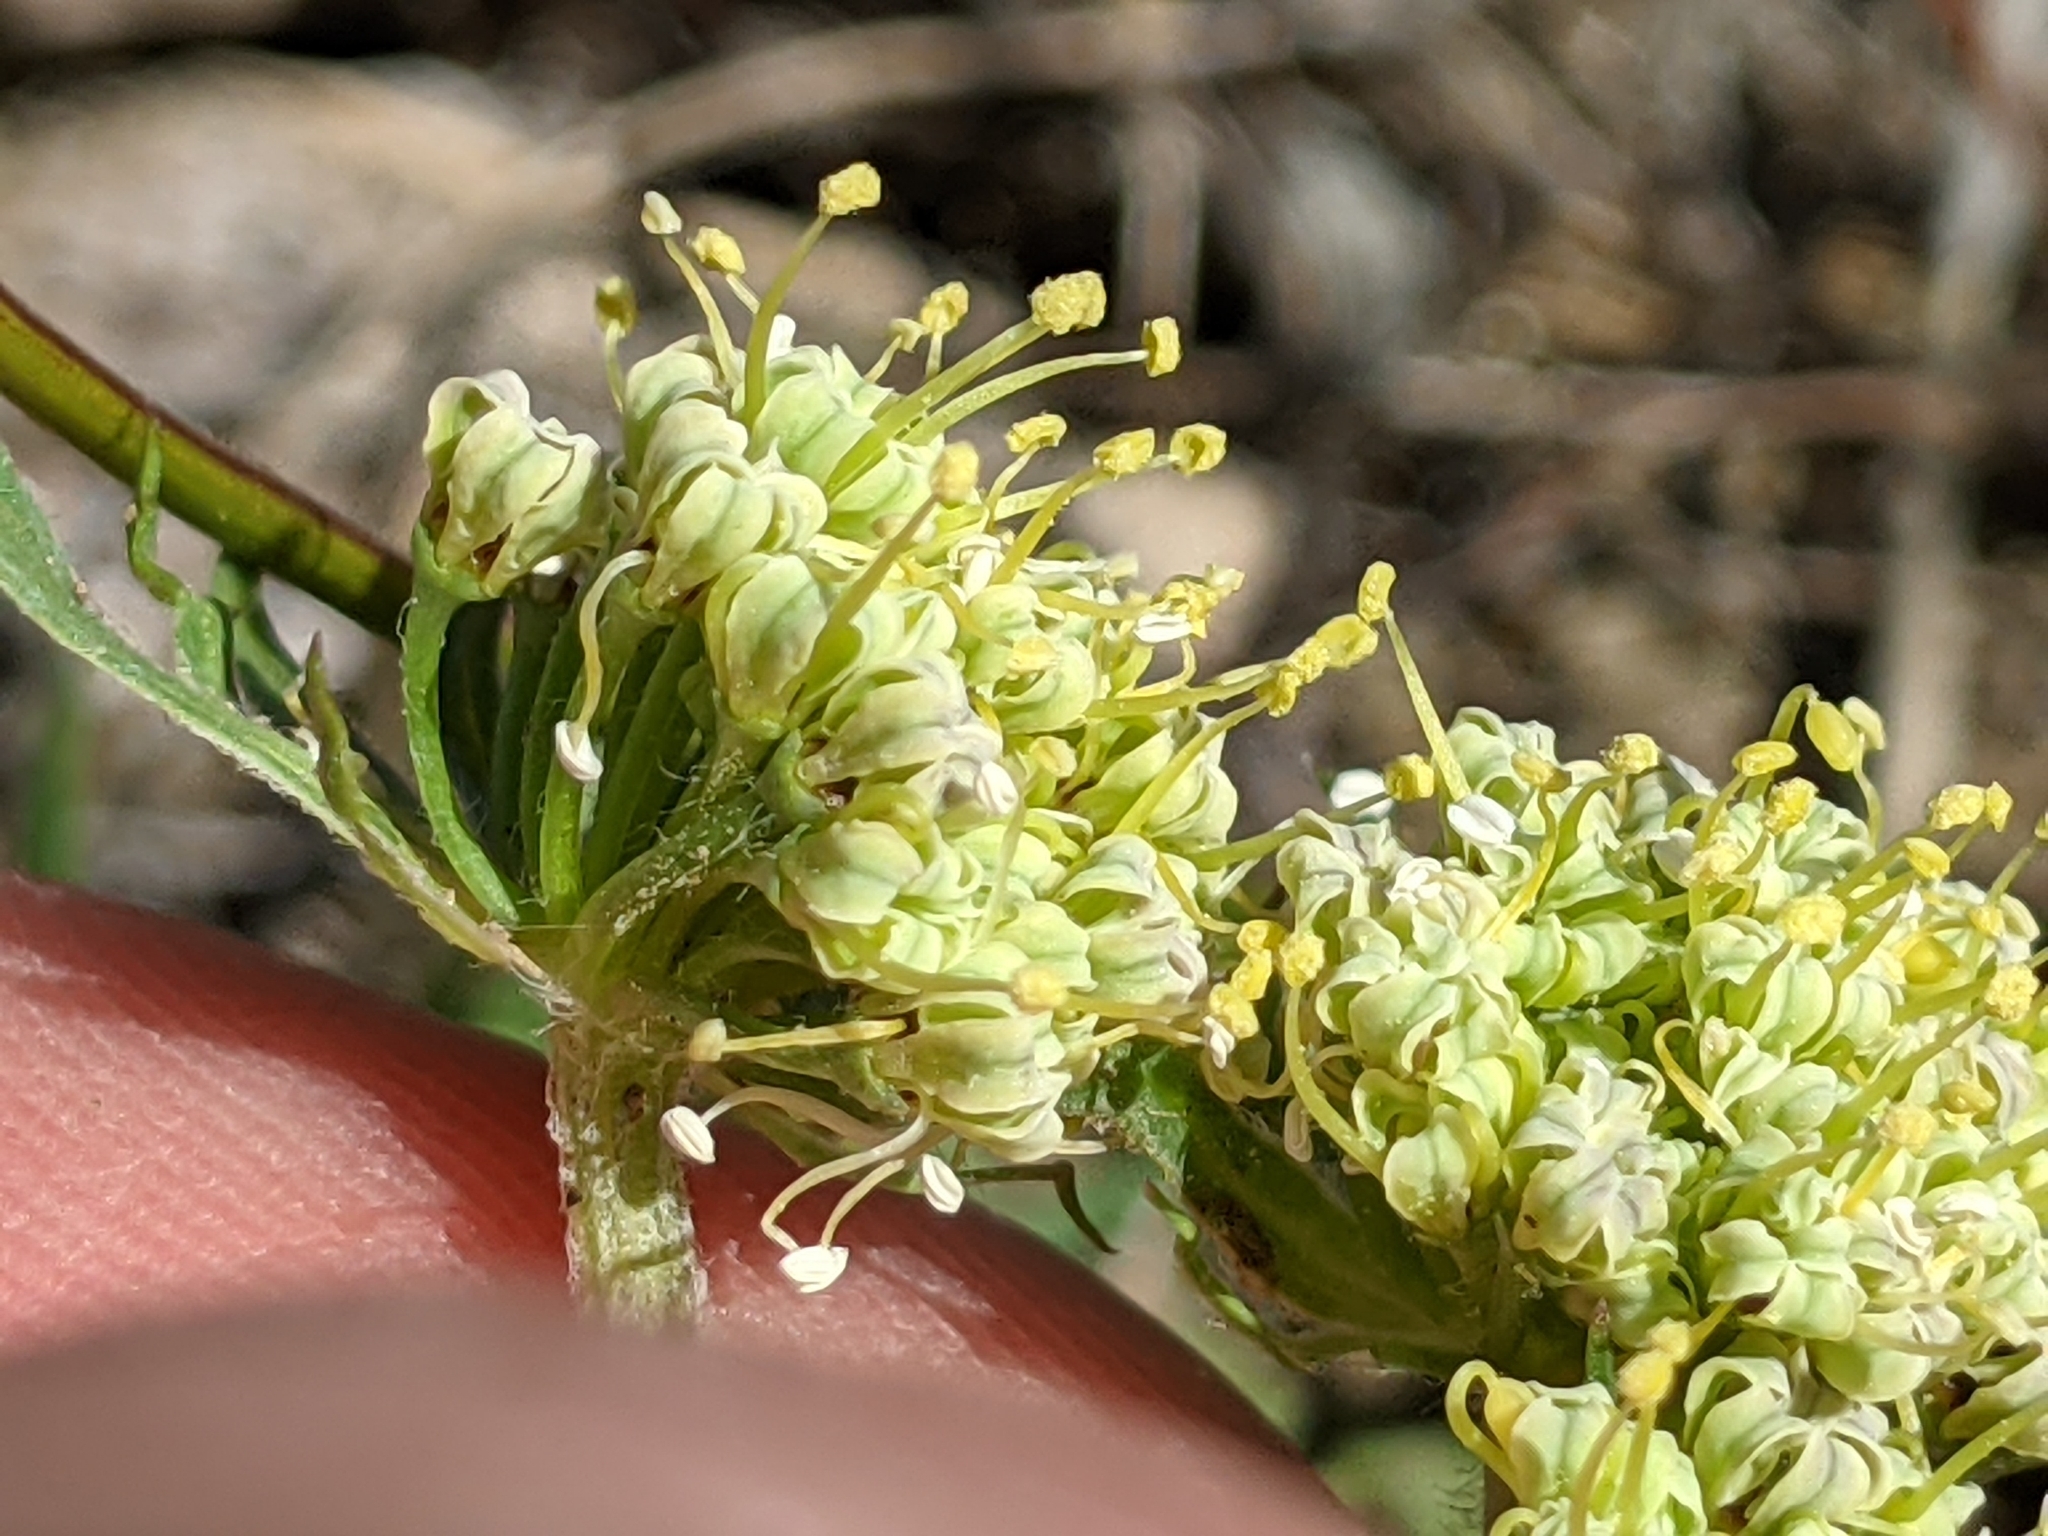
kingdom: Plantae
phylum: Tracheophyta
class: Magnoliopsida
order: Apiales
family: Apiaceae
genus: Lomatium
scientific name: Lomatium macrocarpum
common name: Big-seed biscuitroot
